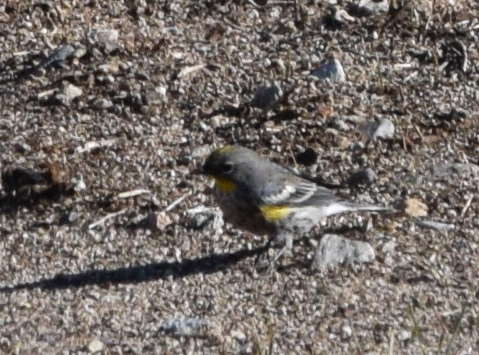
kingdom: Animalia
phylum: Chordata
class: Aves
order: Passeriformes
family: Parulidae
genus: Setophaga
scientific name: Setophaga coronata
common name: Myrtle warbler
